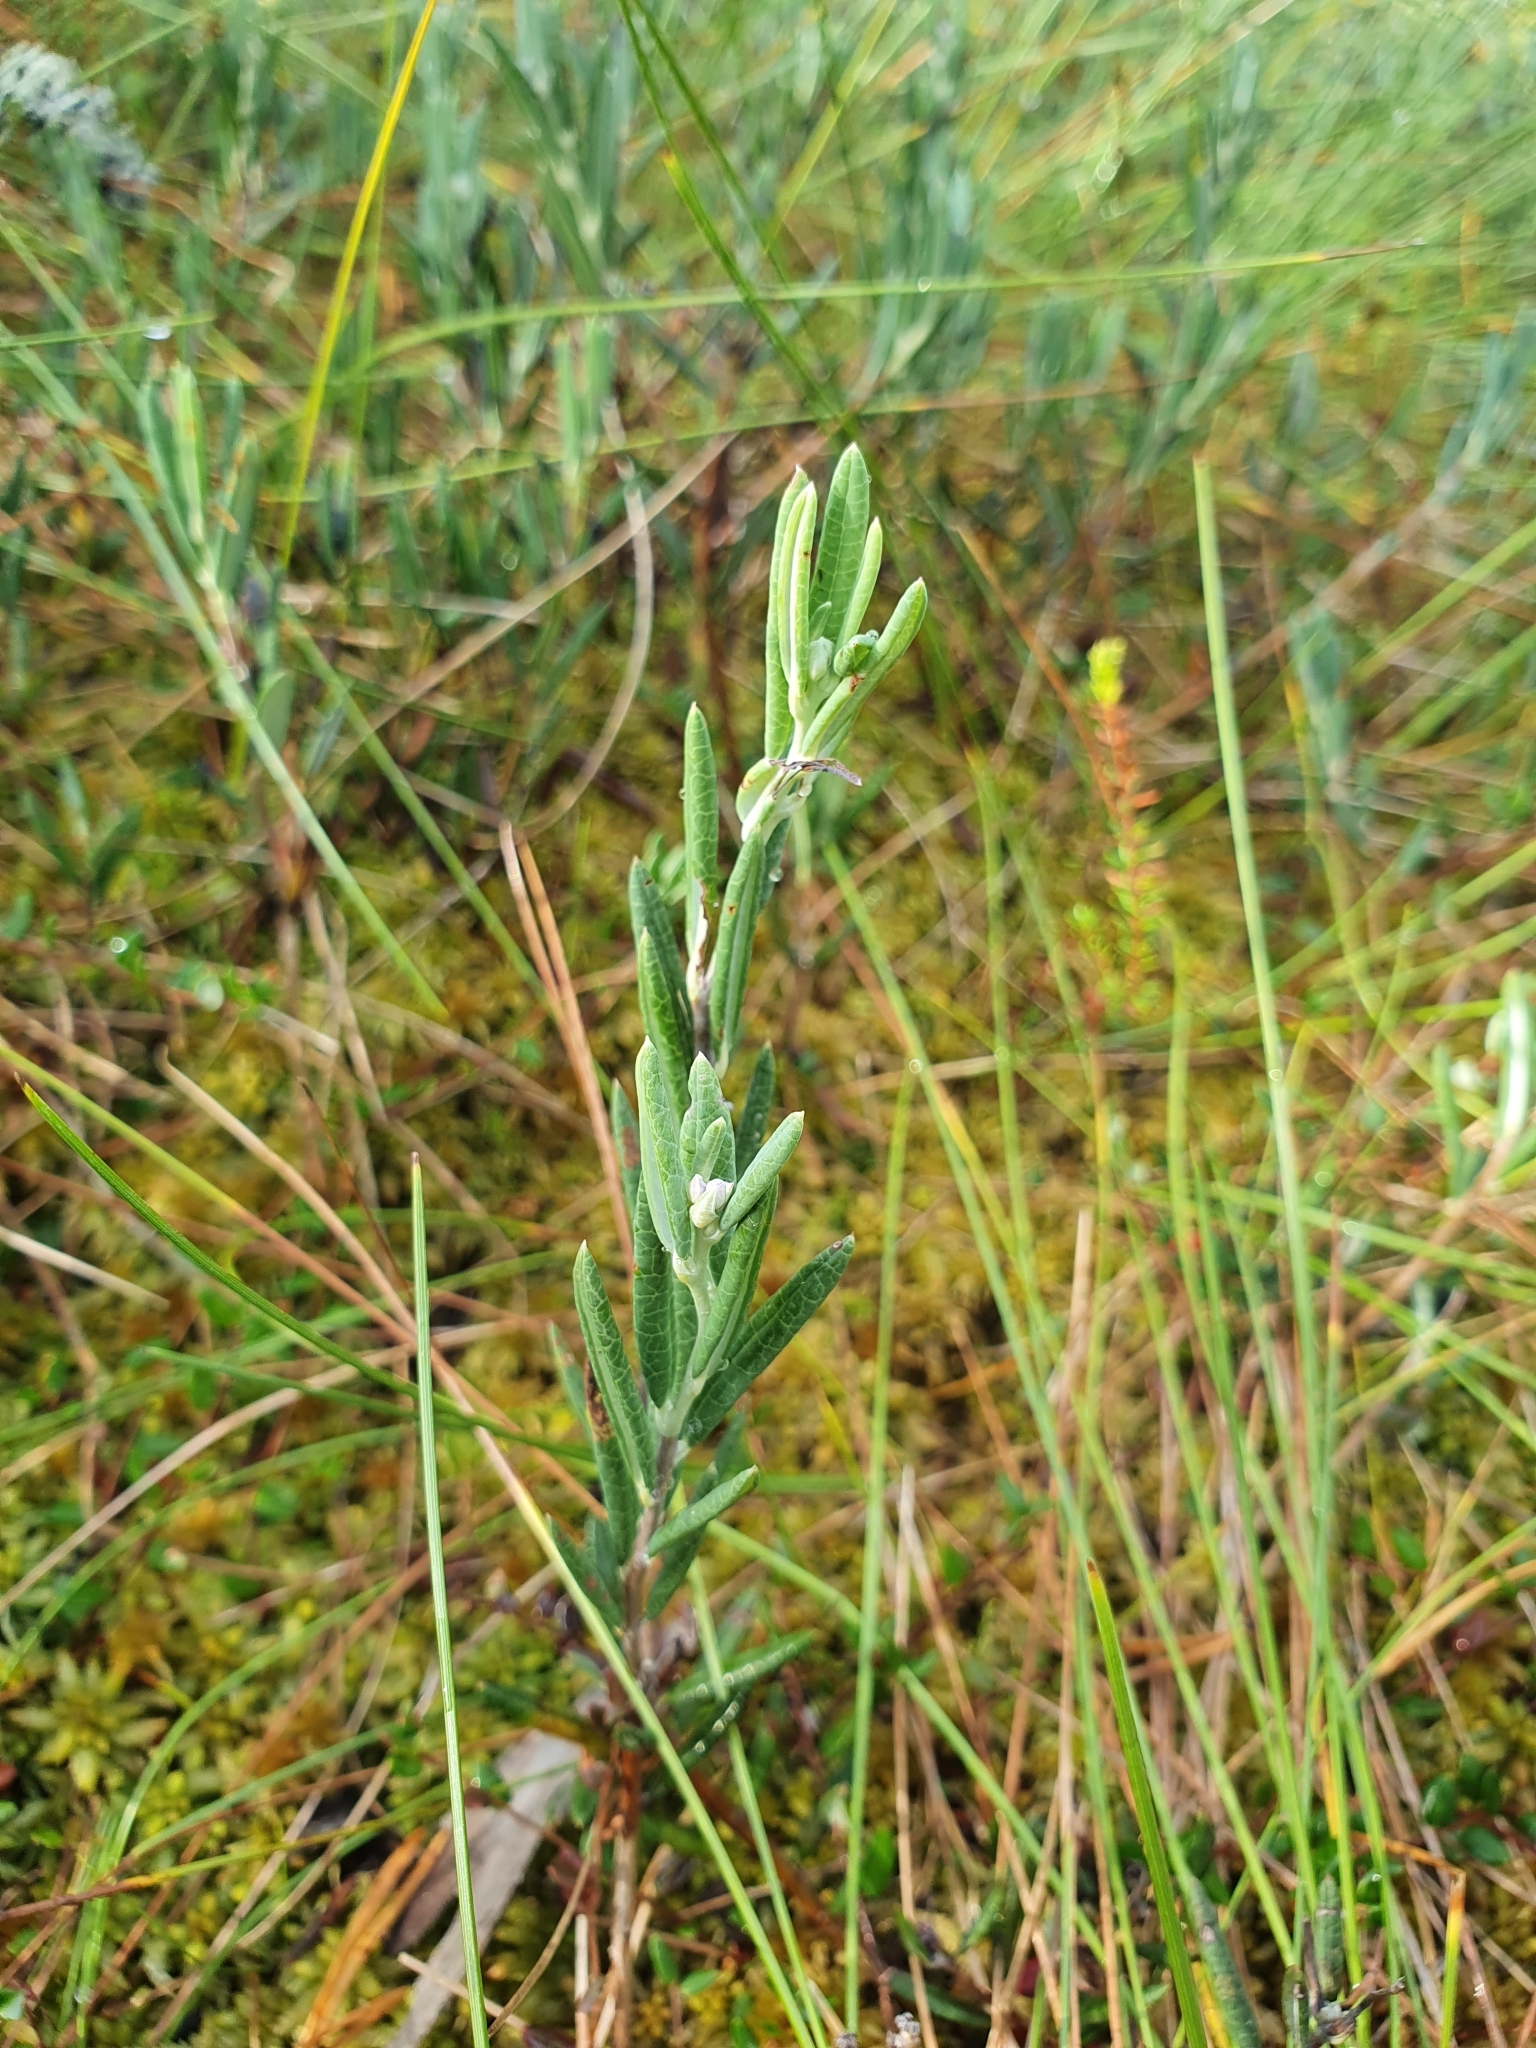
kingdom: Plantae
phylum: Tracheophyta
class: Magnoliopsida
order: Ericales
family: Ericaceae
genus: Andromeda
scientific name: Andromeda polifolia
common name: Bog-rosemary
